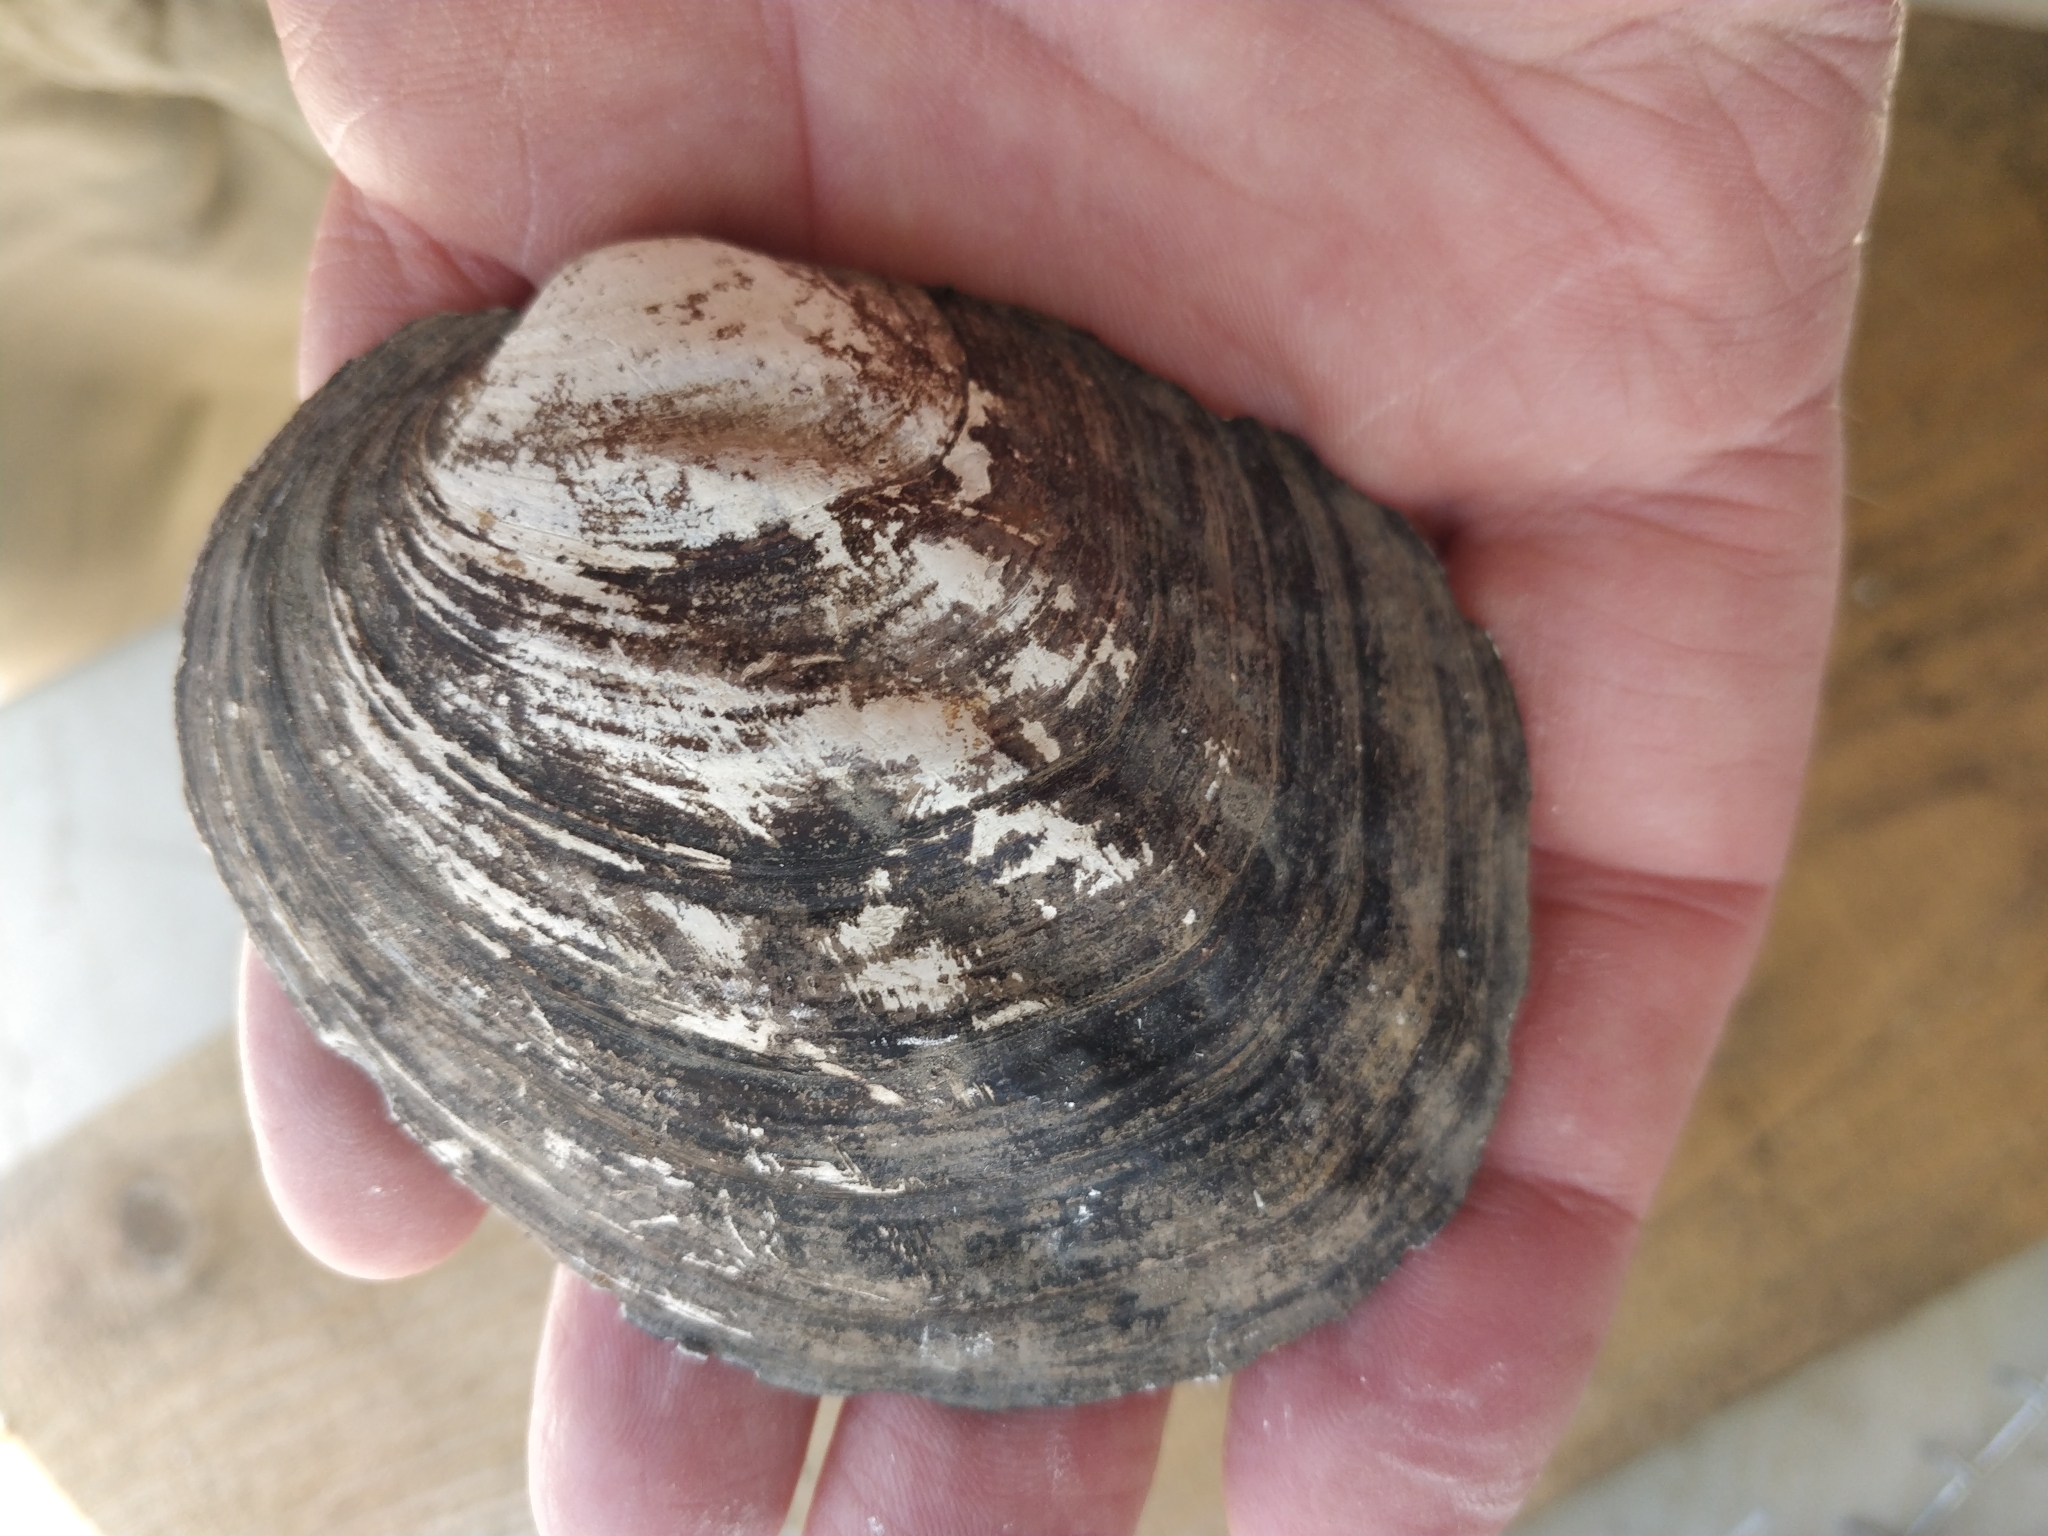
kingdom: Animalia
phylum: Mollusca
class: Bivalvia
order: Unionida
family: Unionidae
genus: Amblema
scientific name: Amblema plicata
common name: Threeridge
